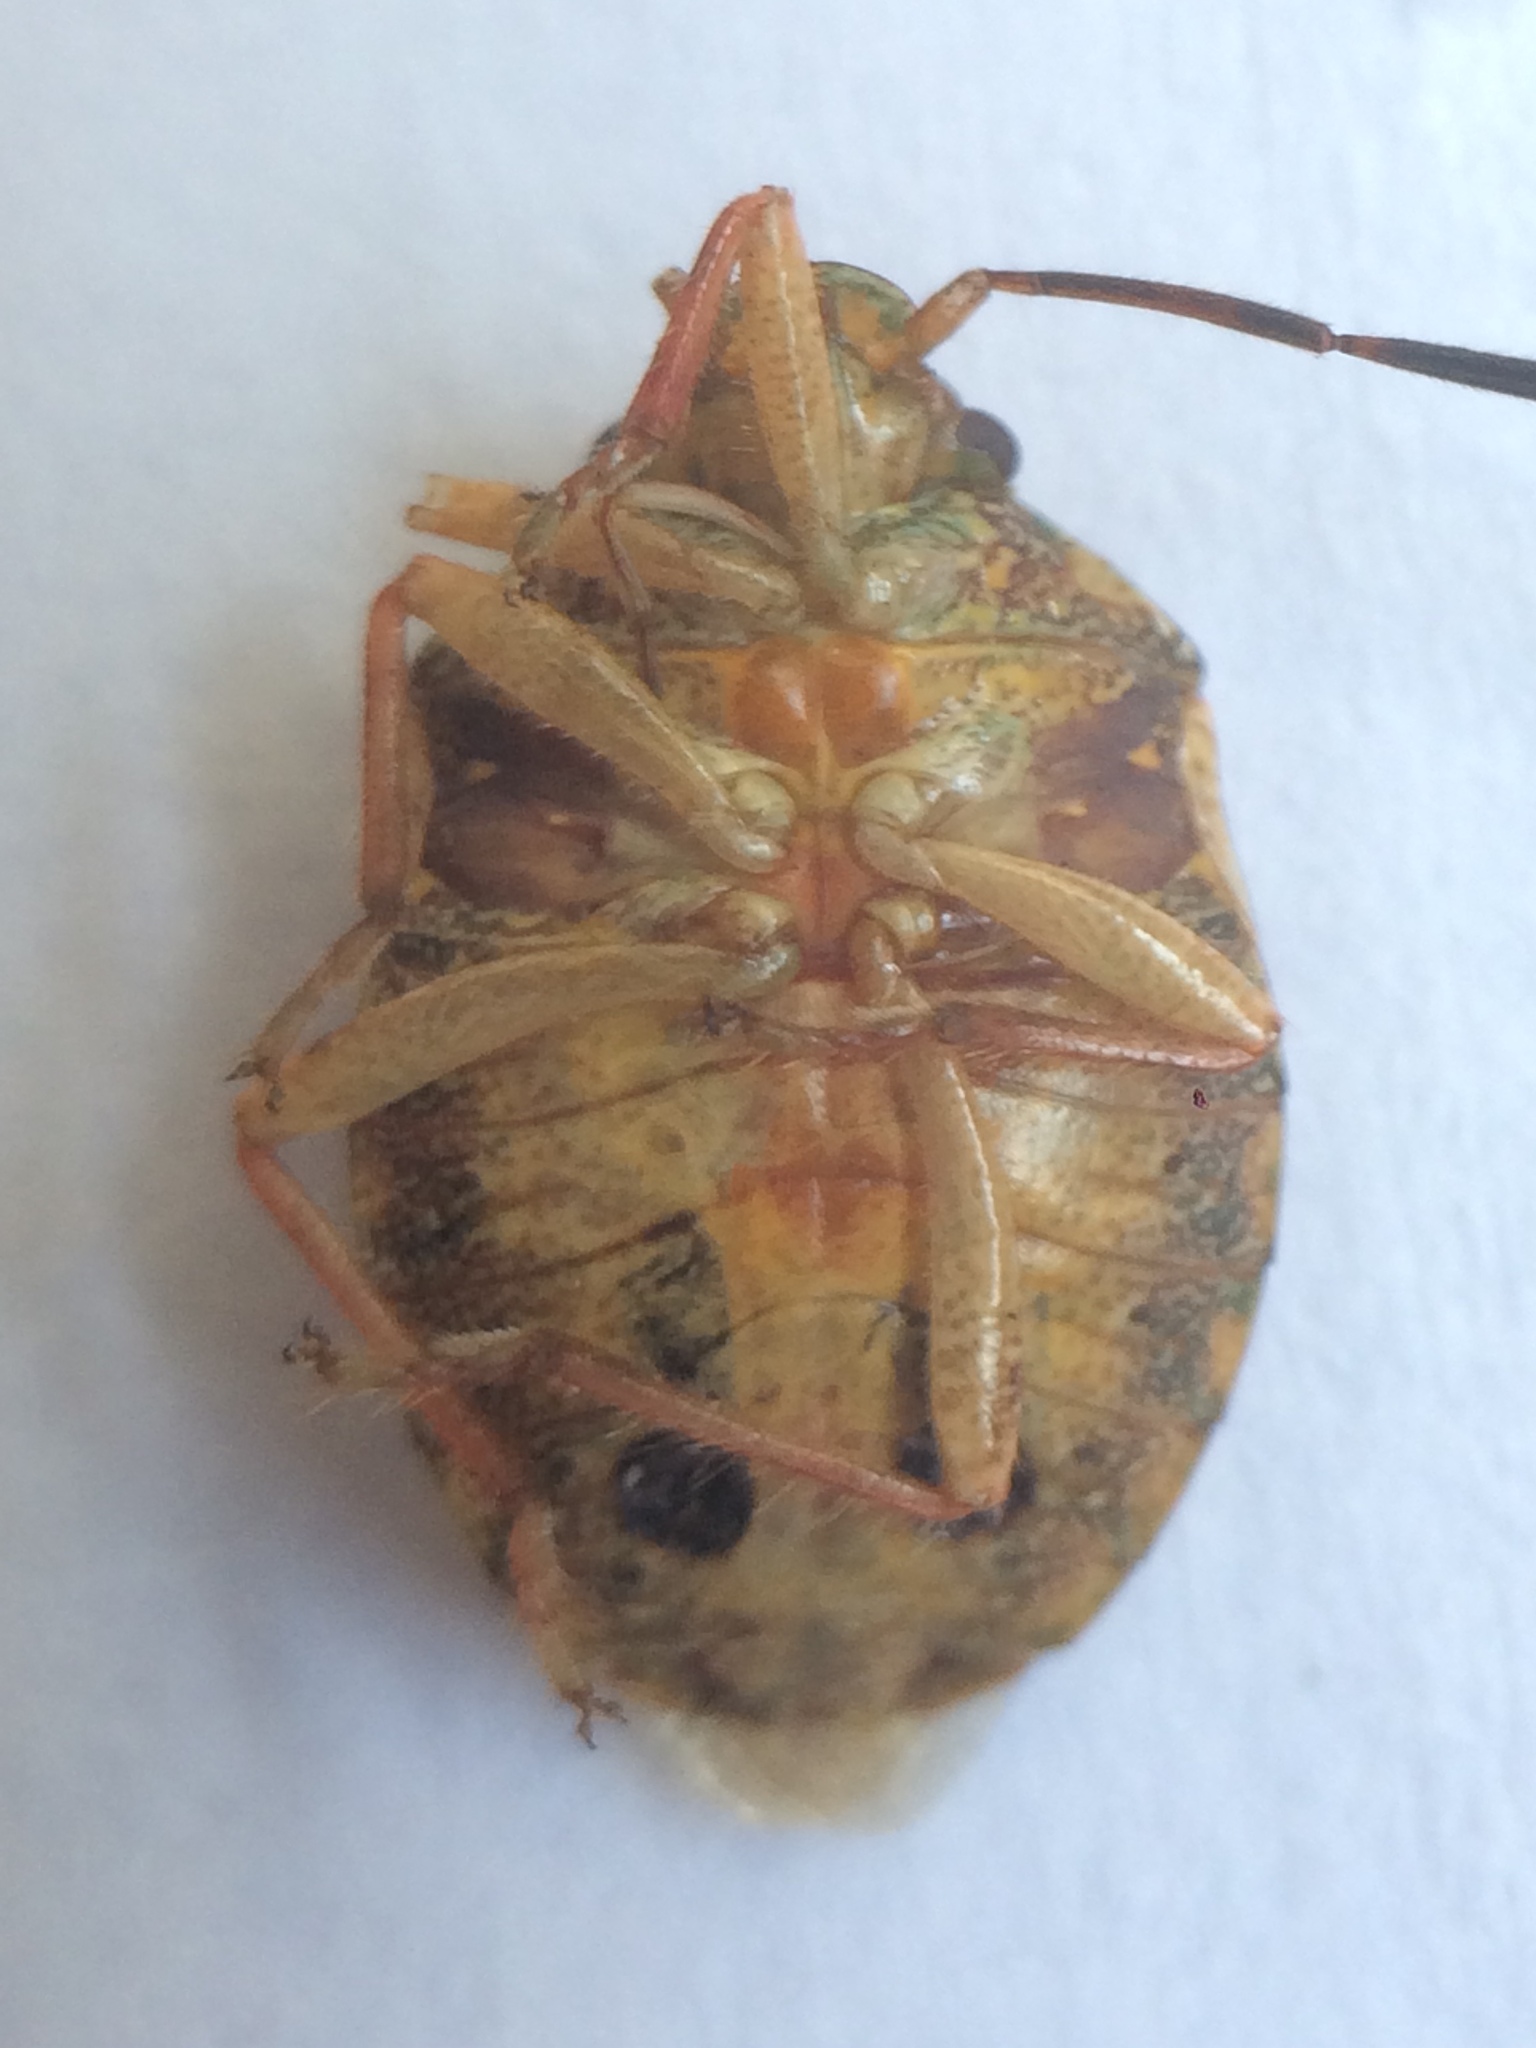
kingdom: Animalia
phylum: Arthropoda
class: Insecta
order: Hemiptera
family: Pentatomidae
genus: Antiteuchus
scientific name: Antiteuchus sepulcralis
